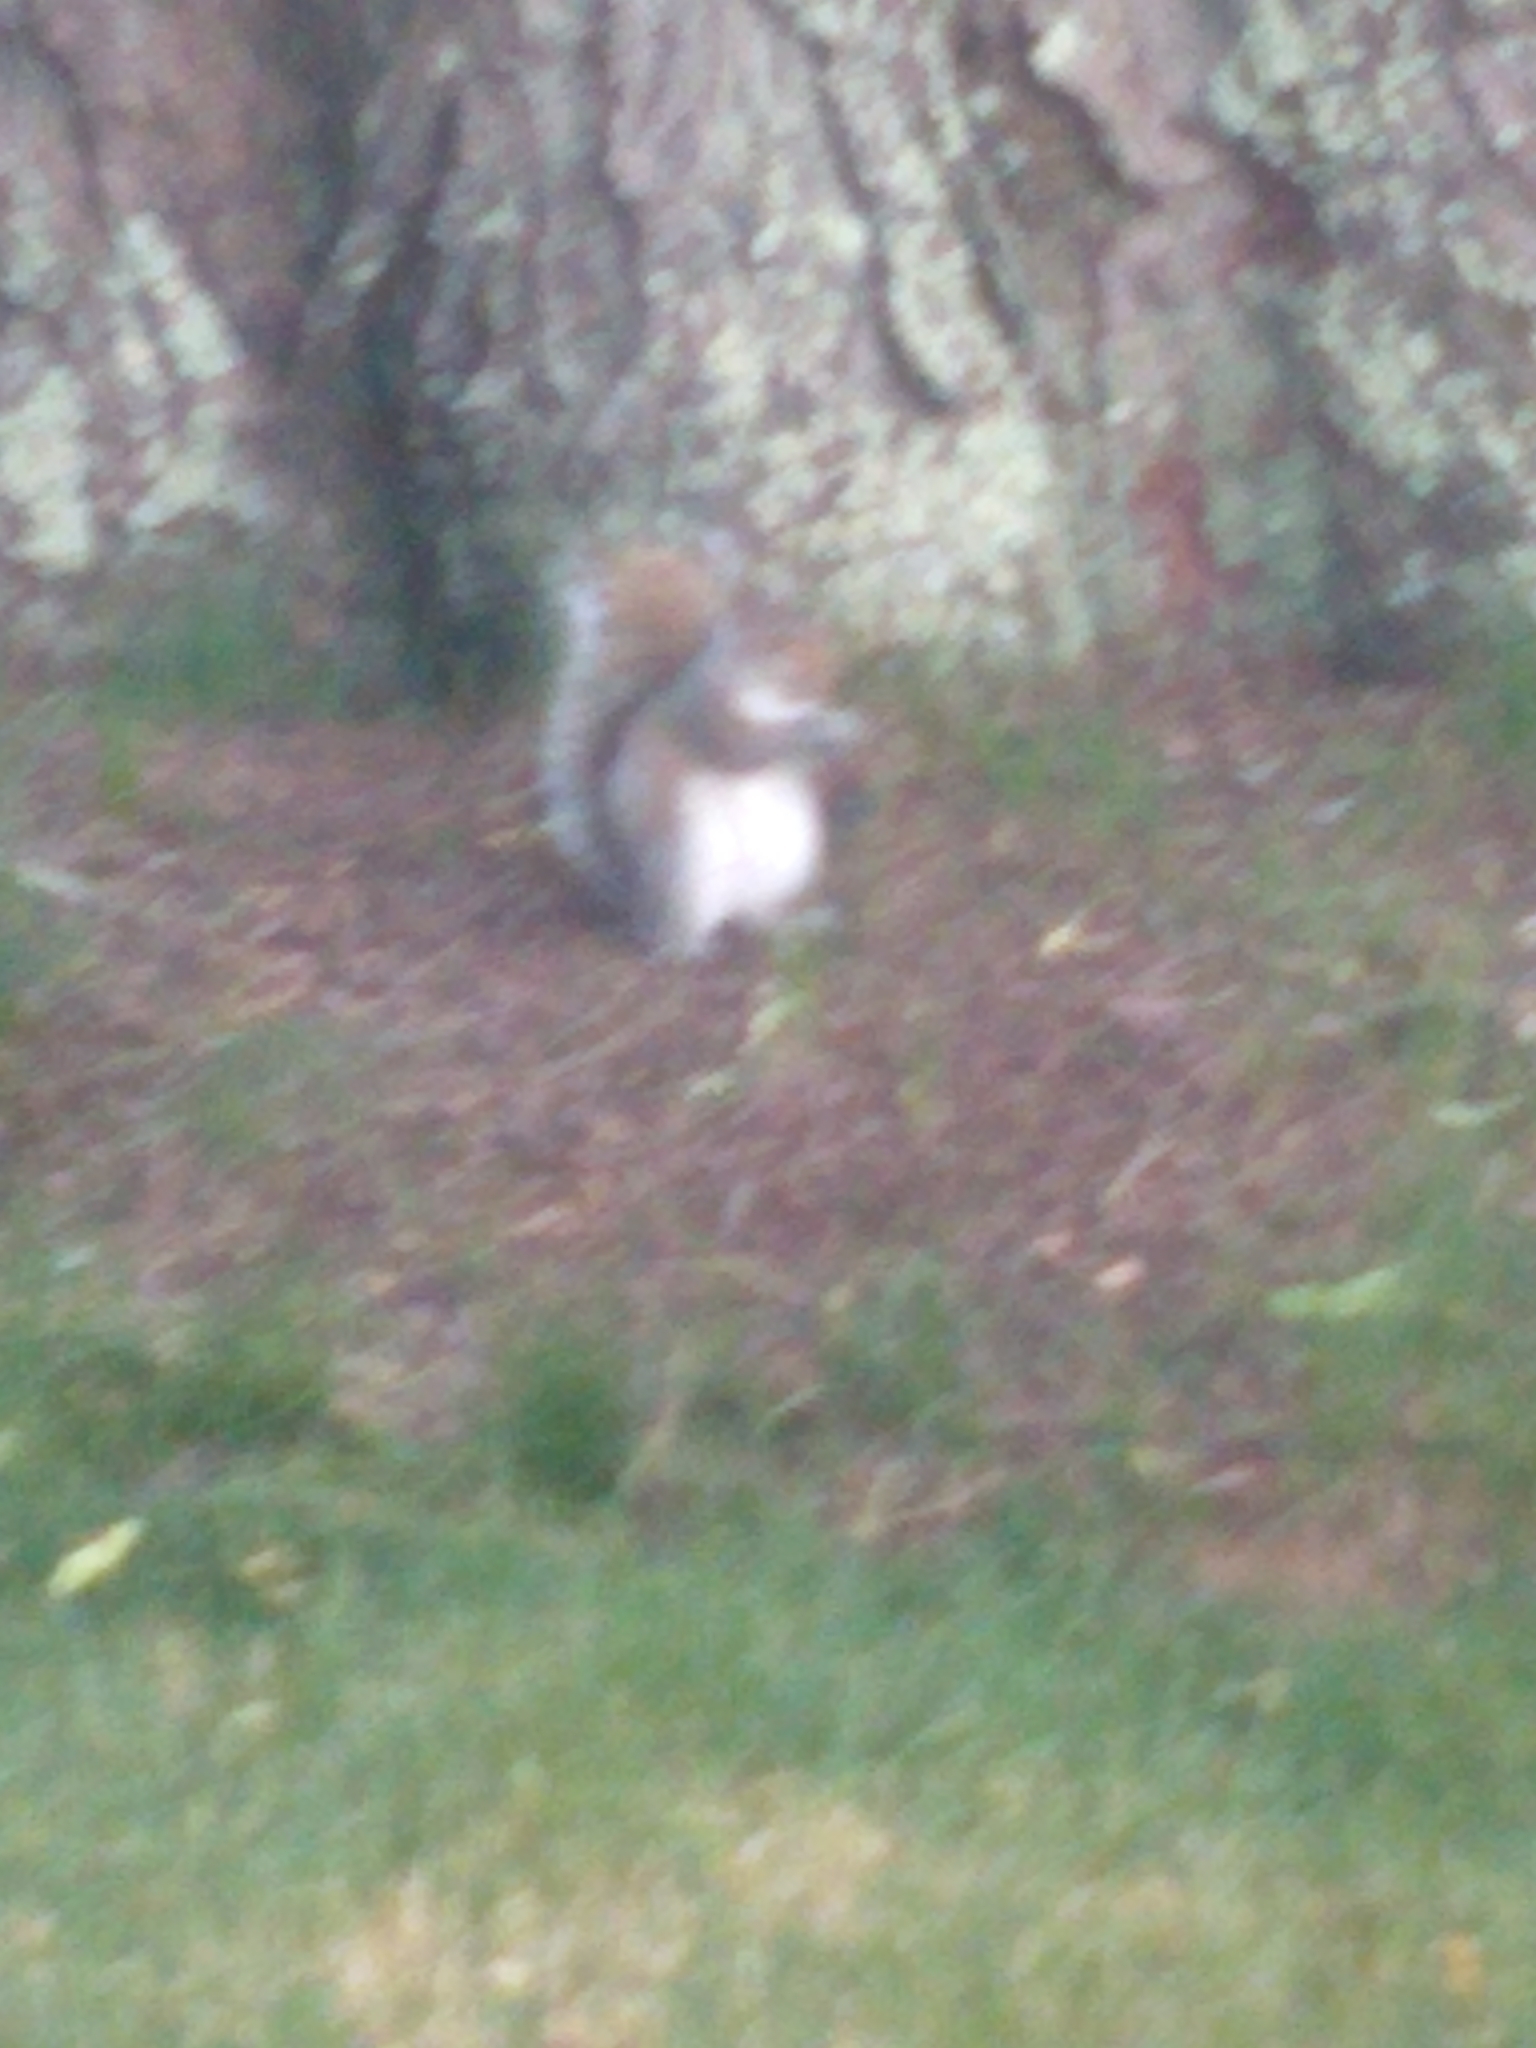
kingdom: Animalia
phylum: Chordata
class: Mammalia
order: Rodentia
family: Sciuridae
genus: Sciurus
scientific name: Sciurus carolinensis
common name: Eastern gray squirrel
